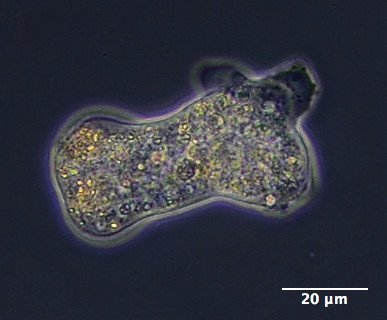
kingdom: Protozoa
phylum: Amoebozoa
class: Lobosa
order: Amoebida
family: Amoebidae
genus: Amoeba
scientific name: Amoeba proteus
